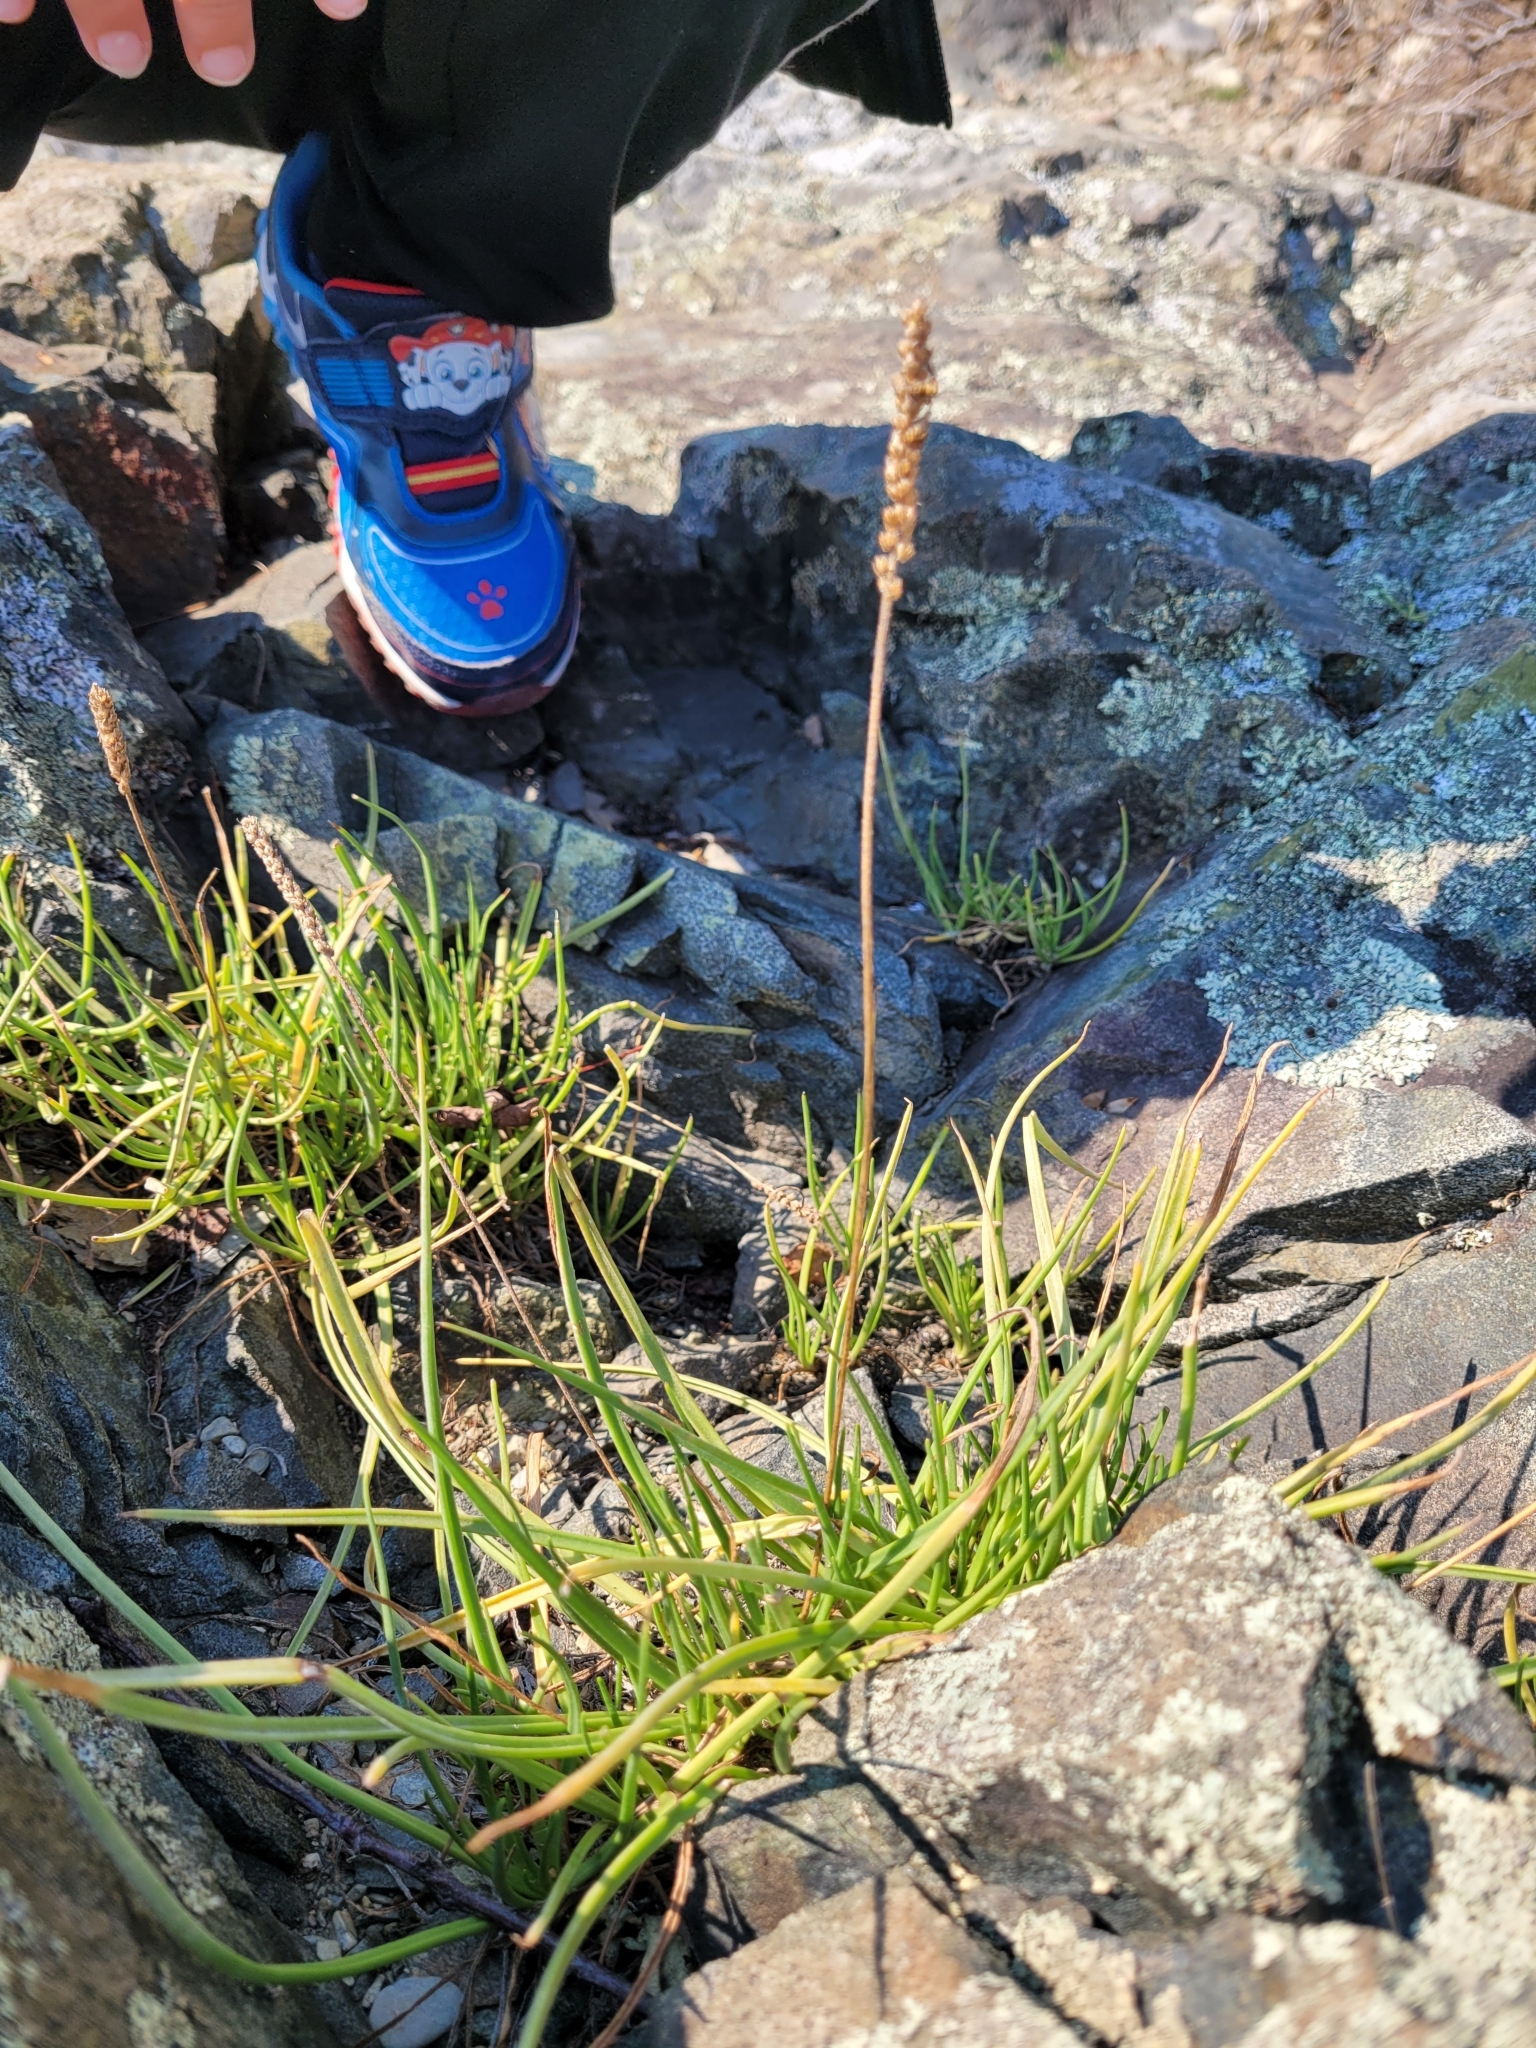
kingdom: Plantae
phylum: Tracheophyta
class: Magnoliopsida
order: Lamiales
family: Plantaginaceae
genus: Plantago
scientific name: Plantago maritima
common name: Sea plantain
